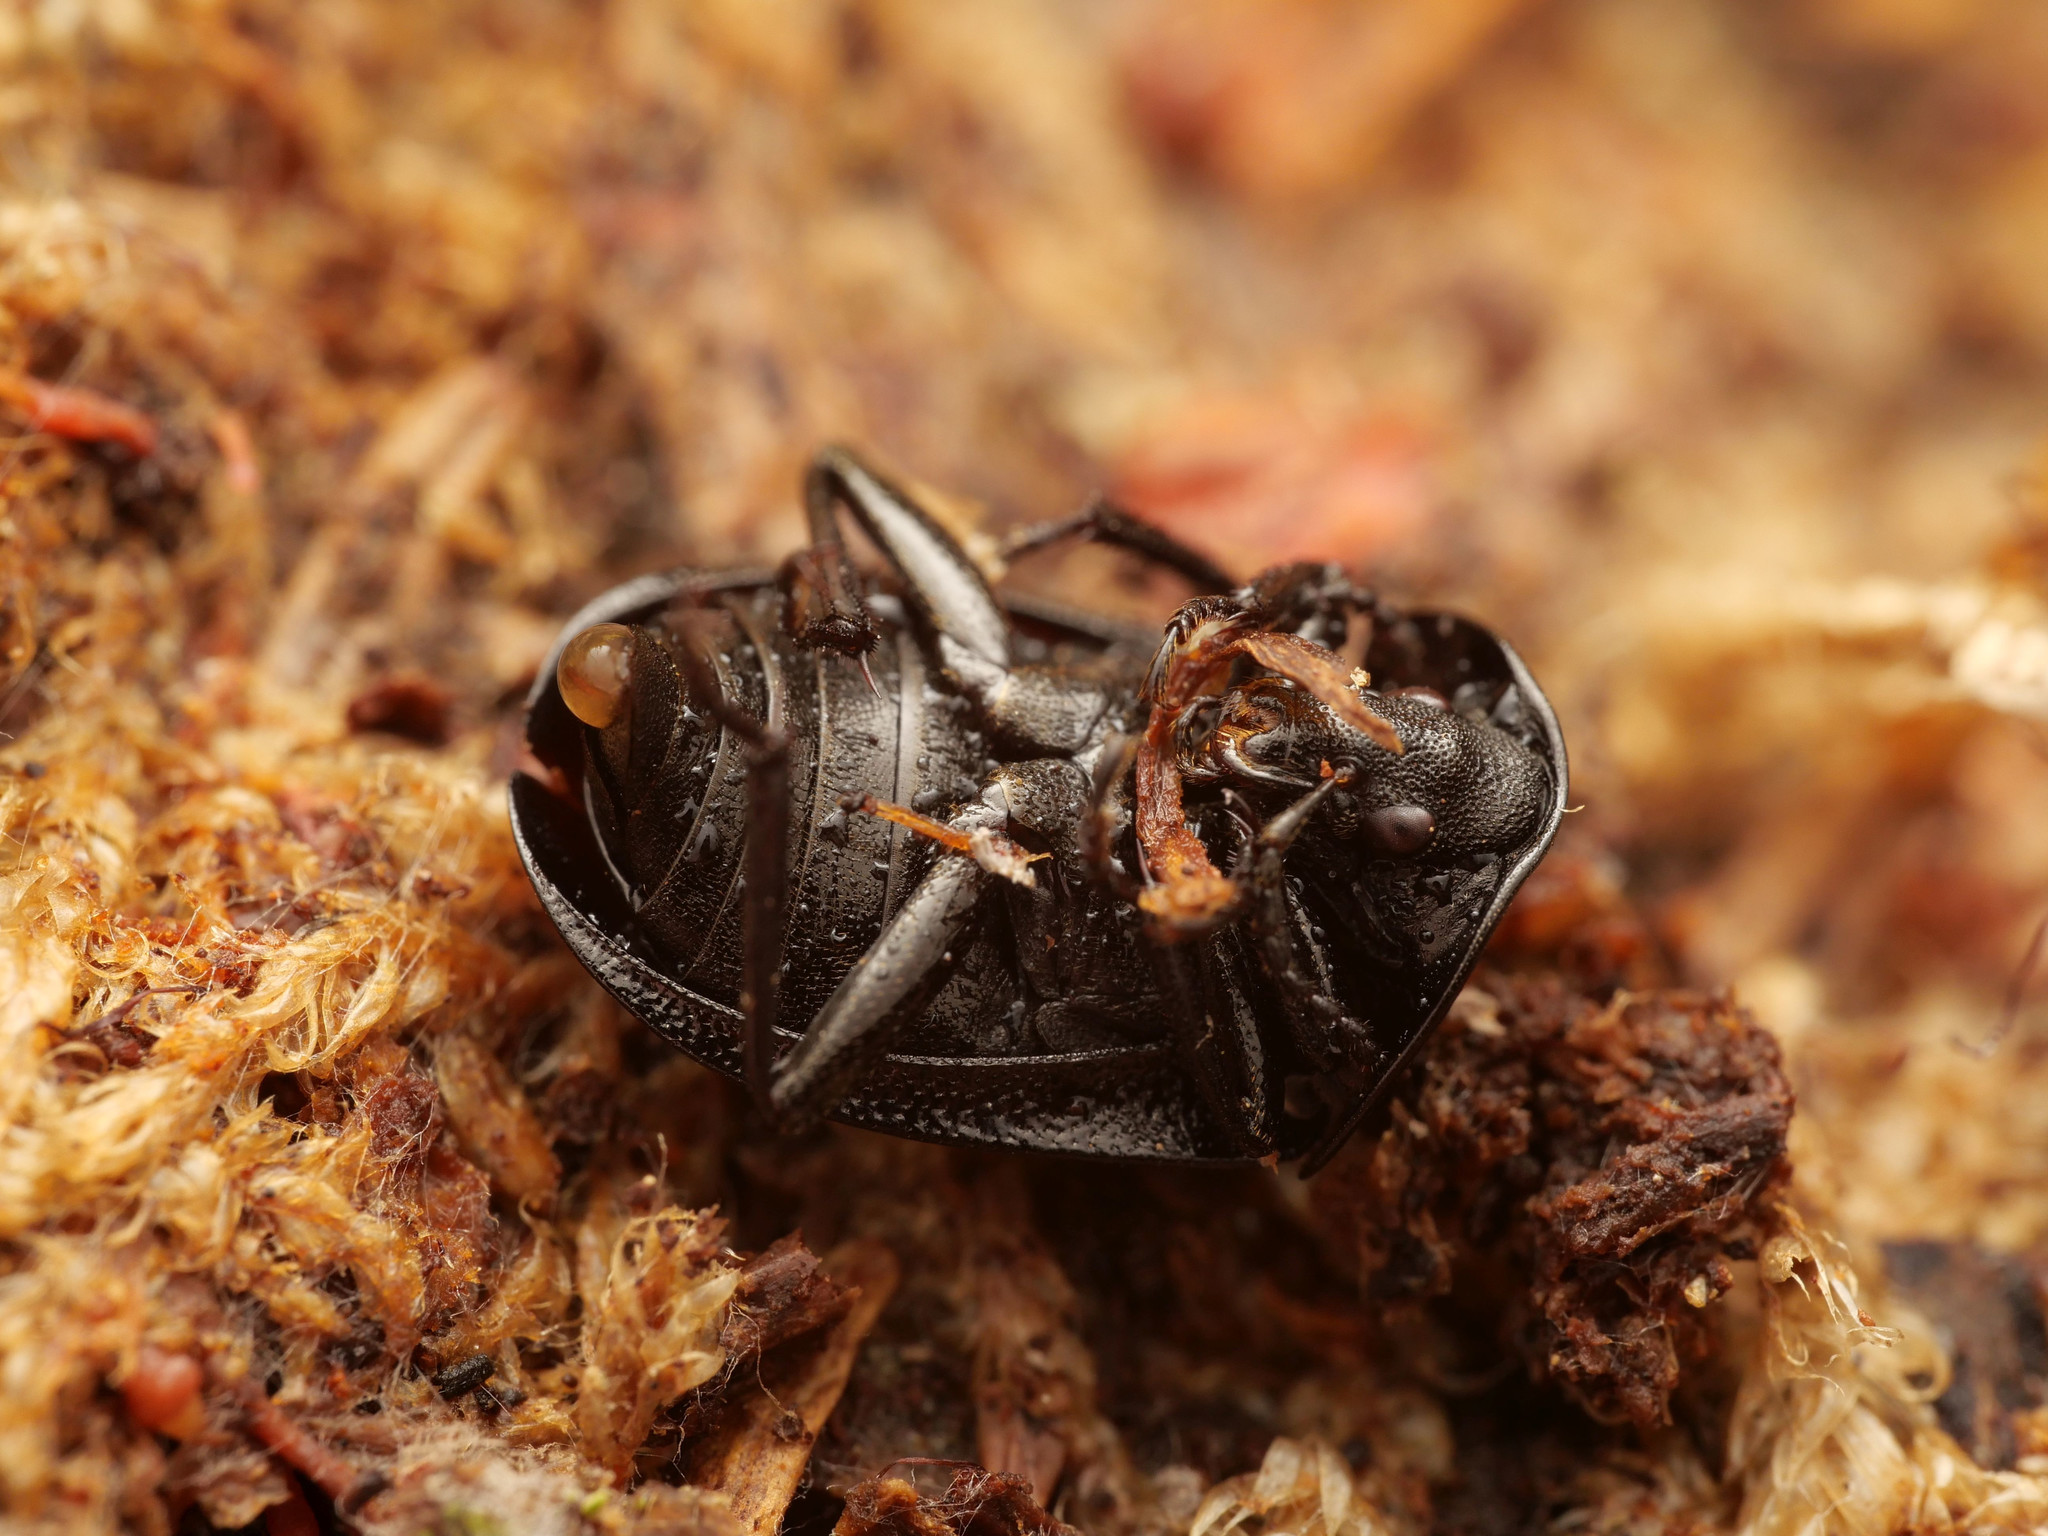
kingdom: Animalia
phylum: Arthropoda
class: Insecta
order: Coleoptera
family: Staphylinidae
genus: Silpha
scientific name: Silpha atrata
